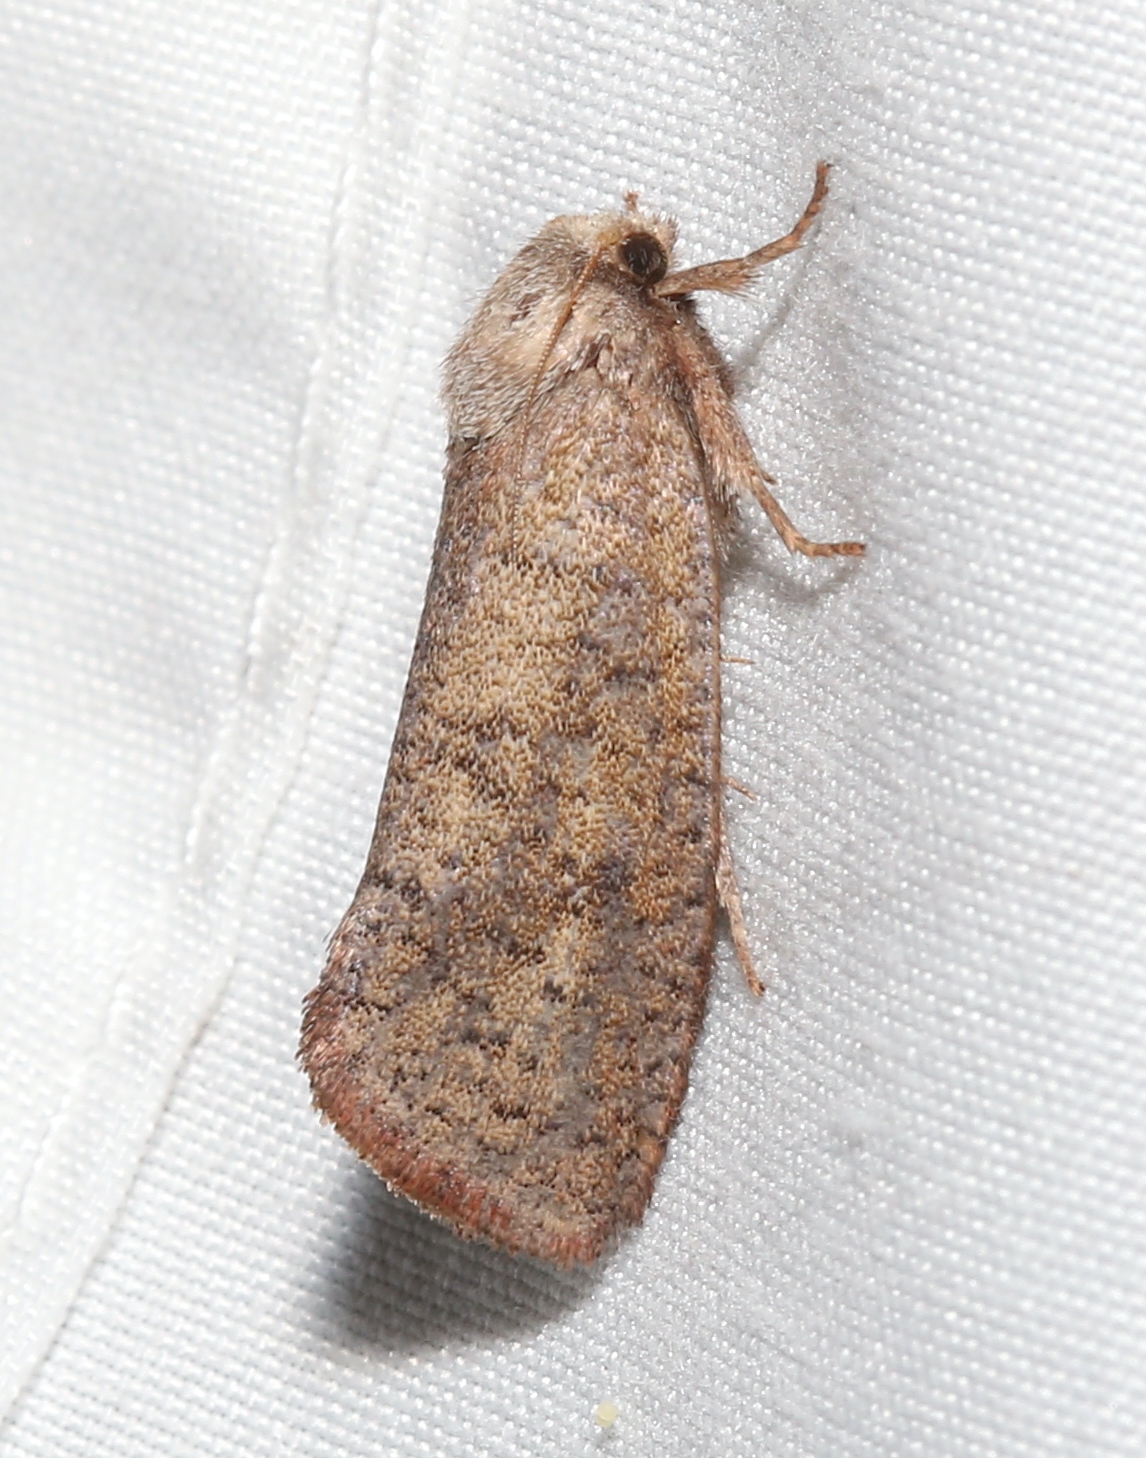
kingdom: Animalia
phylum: Arthropoda
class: Insecta
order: Lepidoptera
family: Tineidae
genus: Acrolophus
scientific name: Acrolophus plumifrontella
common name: Eastern grass tubeworm moth
